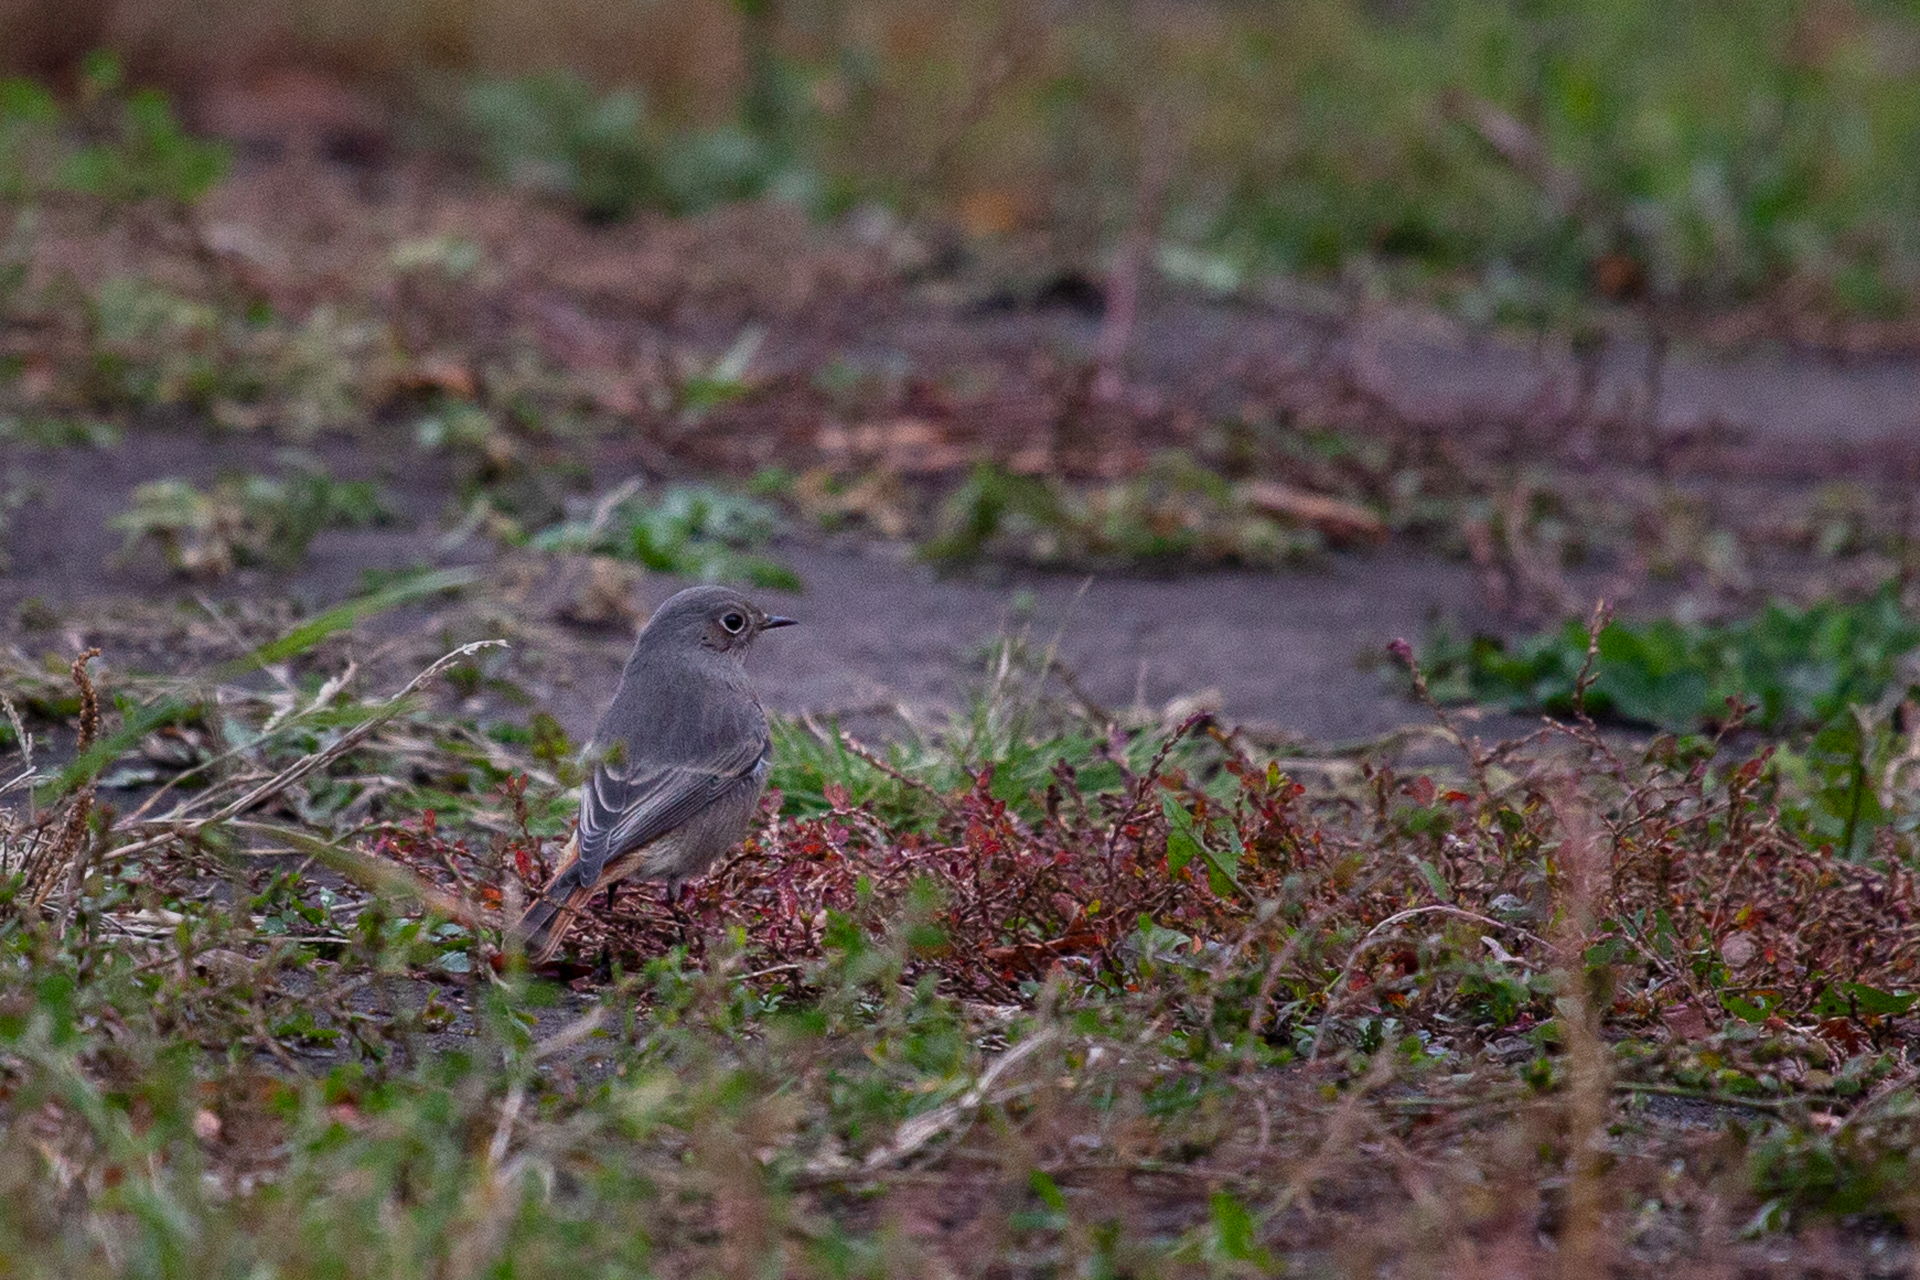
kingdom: Animalia
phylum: Chordata
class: Aves
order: Passeriformes
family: Muscicapidae
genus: Phoenicurus
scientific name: Phoenicurus ochruros
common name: Black redstart
